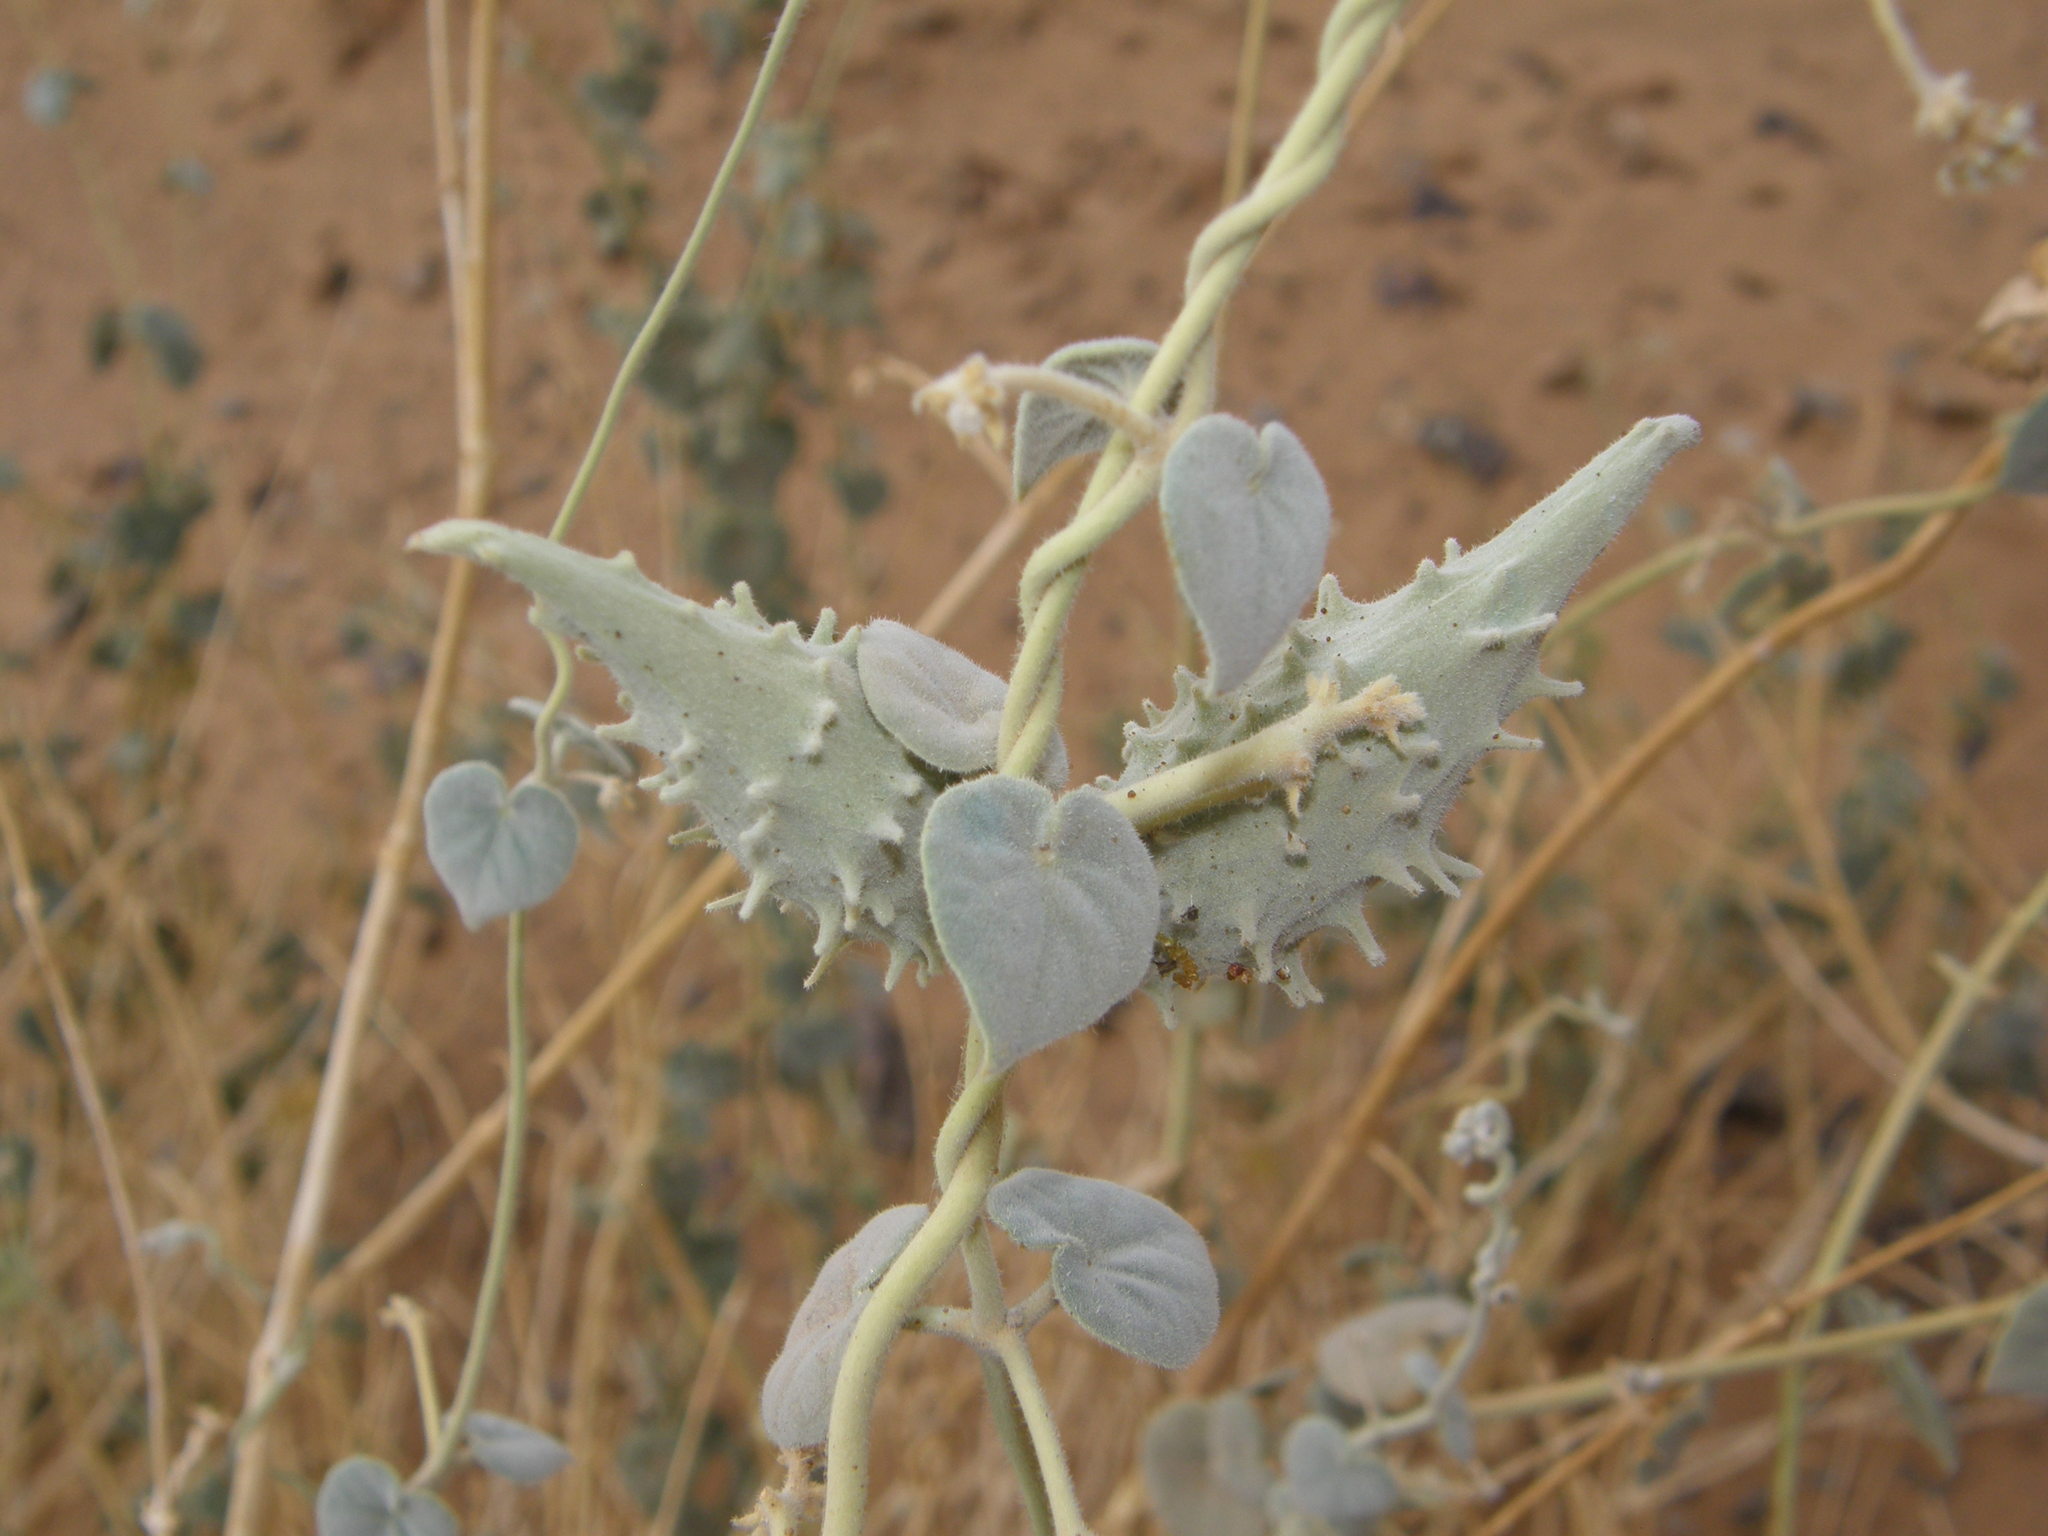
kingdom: Plantae
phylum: Tracheophyta
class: Magnoliopsida
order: Gentianales
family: Apocynaceae
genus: Pergularia
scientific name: Pergularia tomentosa
